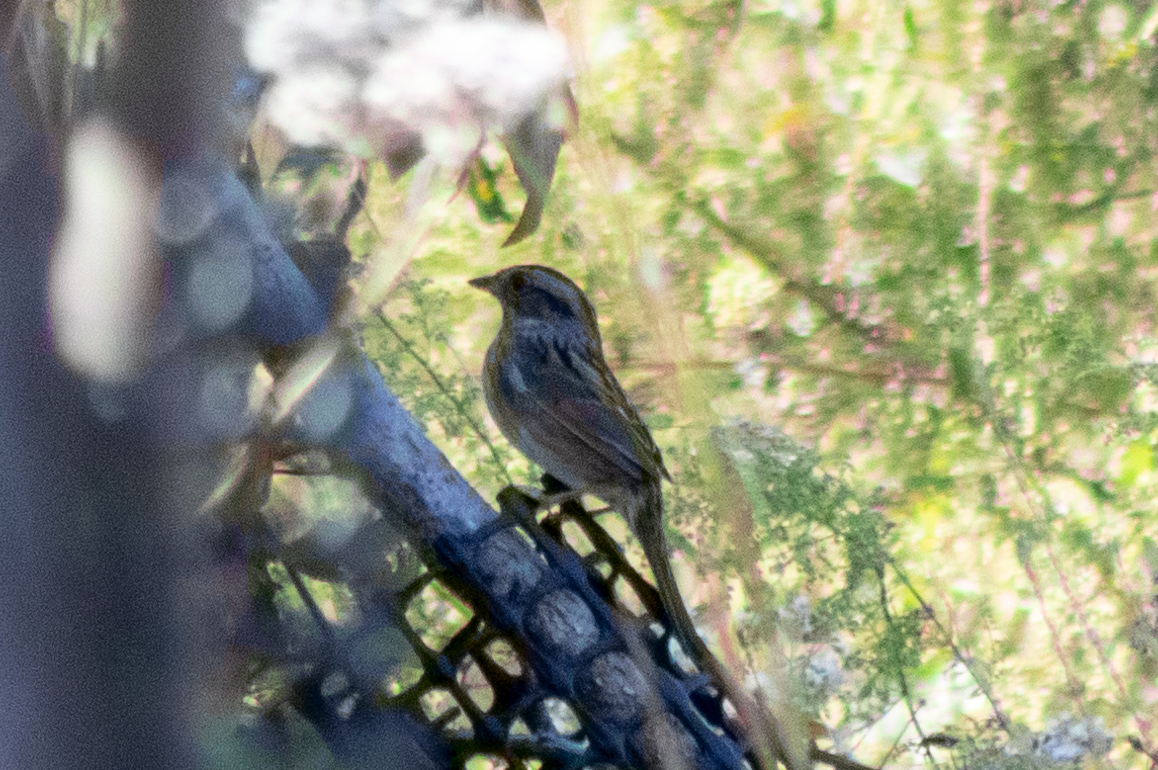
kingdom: Animalia
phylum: Chordata
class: Aves
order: Passeriformes
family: Passerellidae
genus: Melospiza
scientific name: Melospiza georgiana
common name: Swamp sparrow
